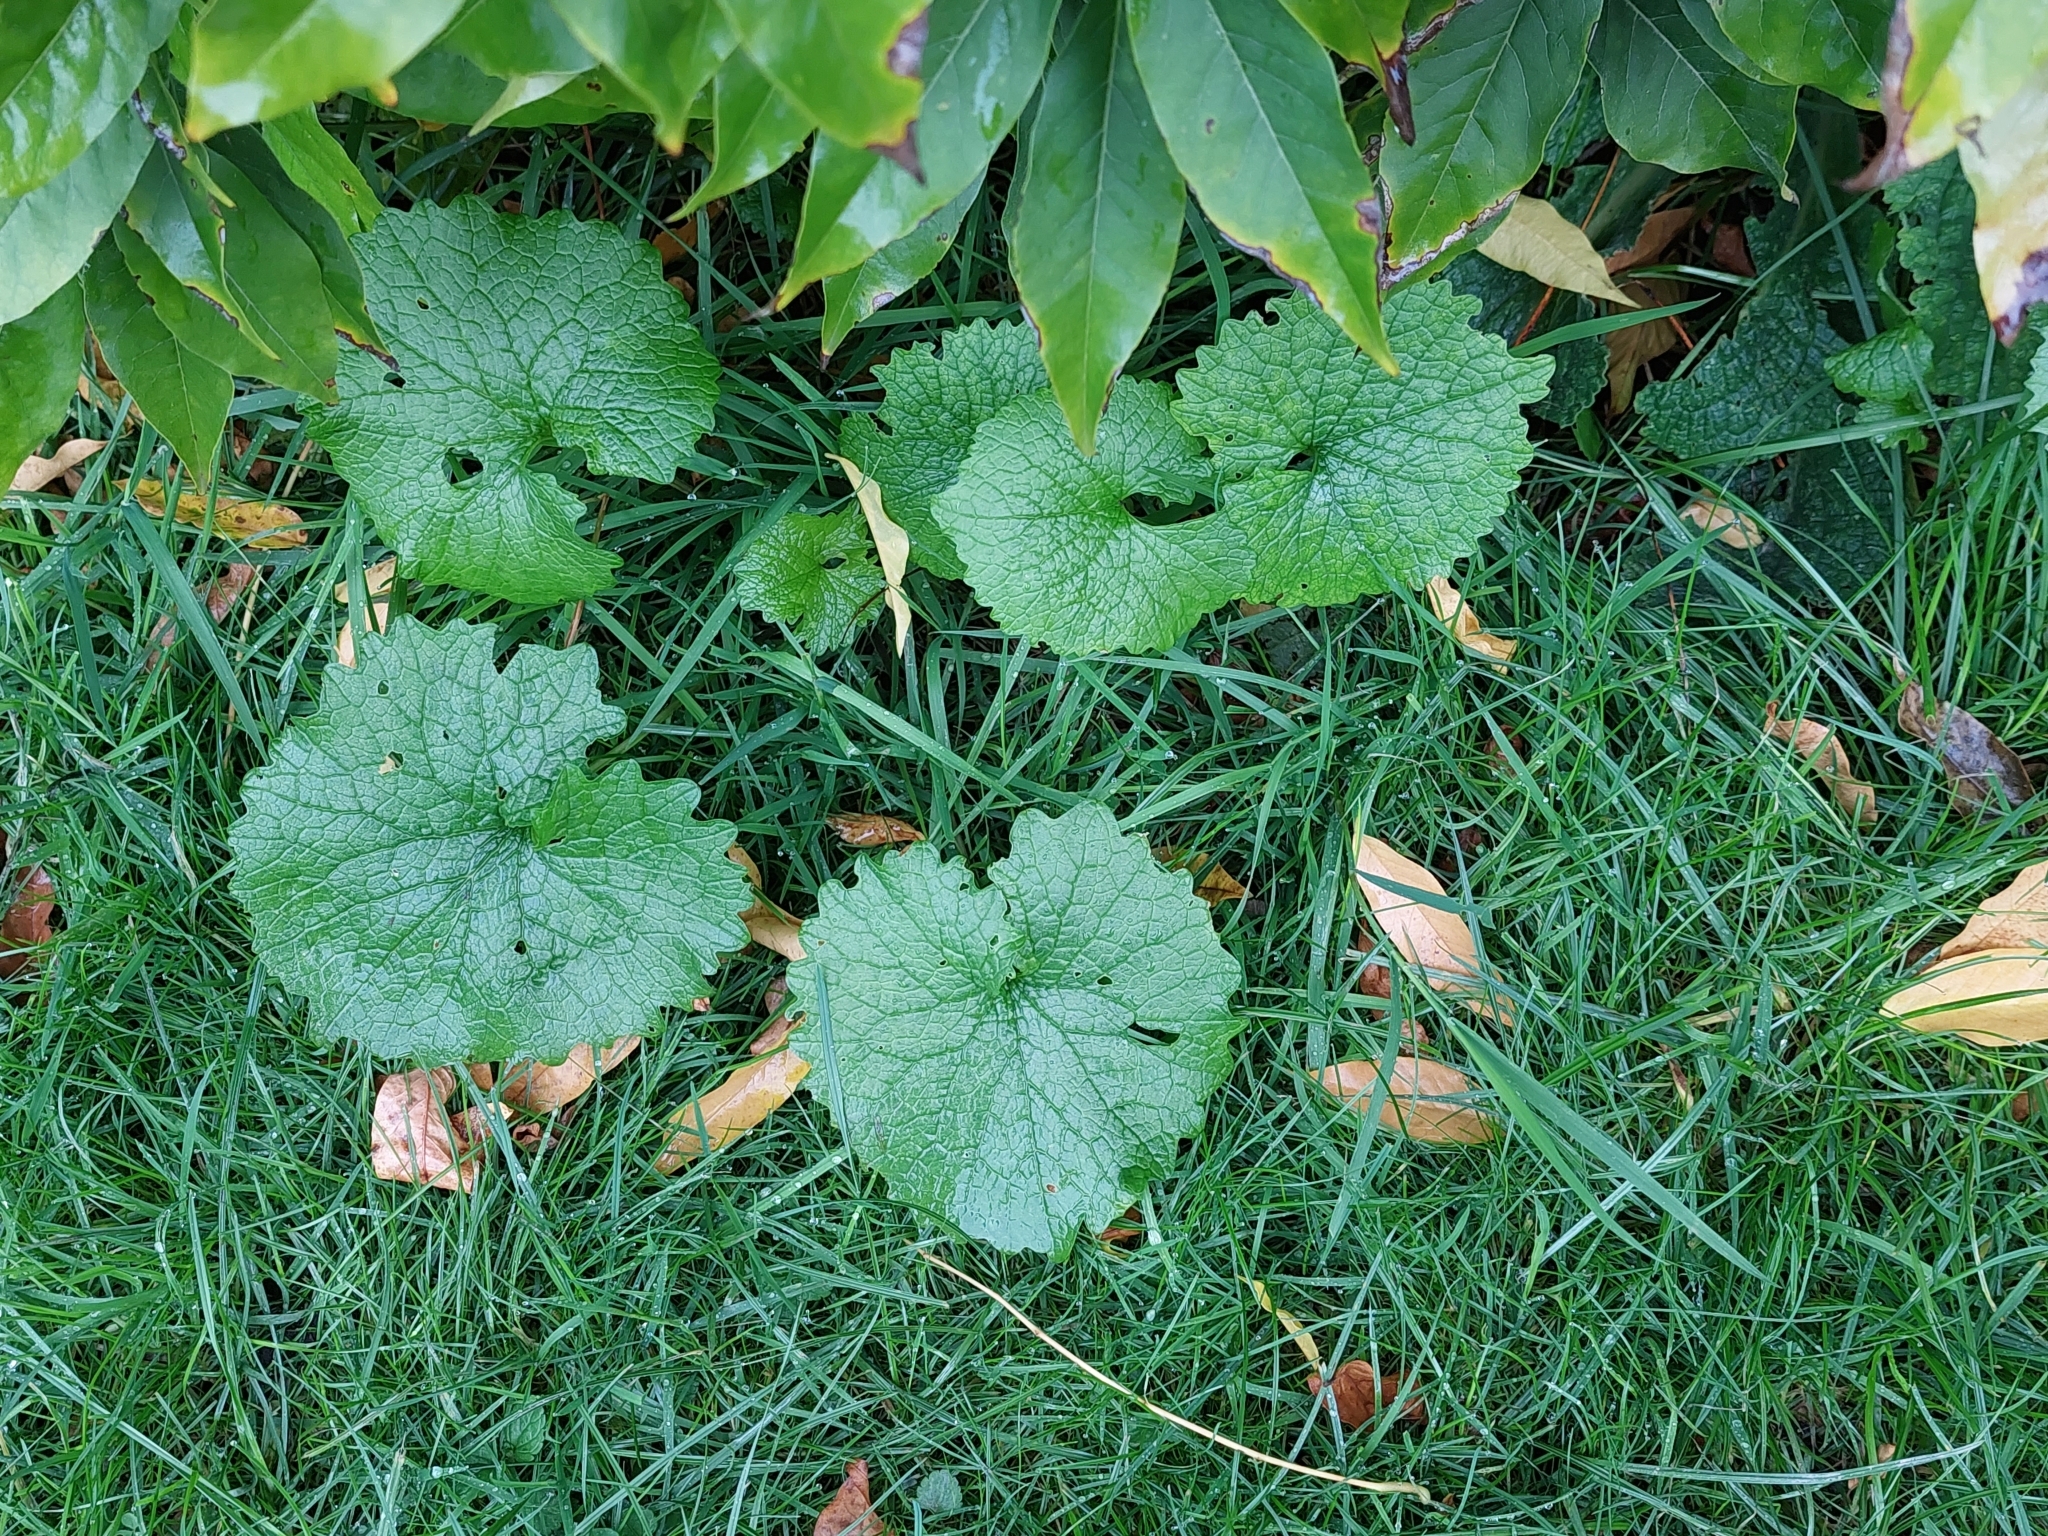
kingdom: Plantae
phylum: Tracheophyta
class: Magnoliopsida
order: Brassicales
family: Brassicaceae
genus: Alliaria
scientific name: Alliaria petiolata
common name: Garlic mustard
